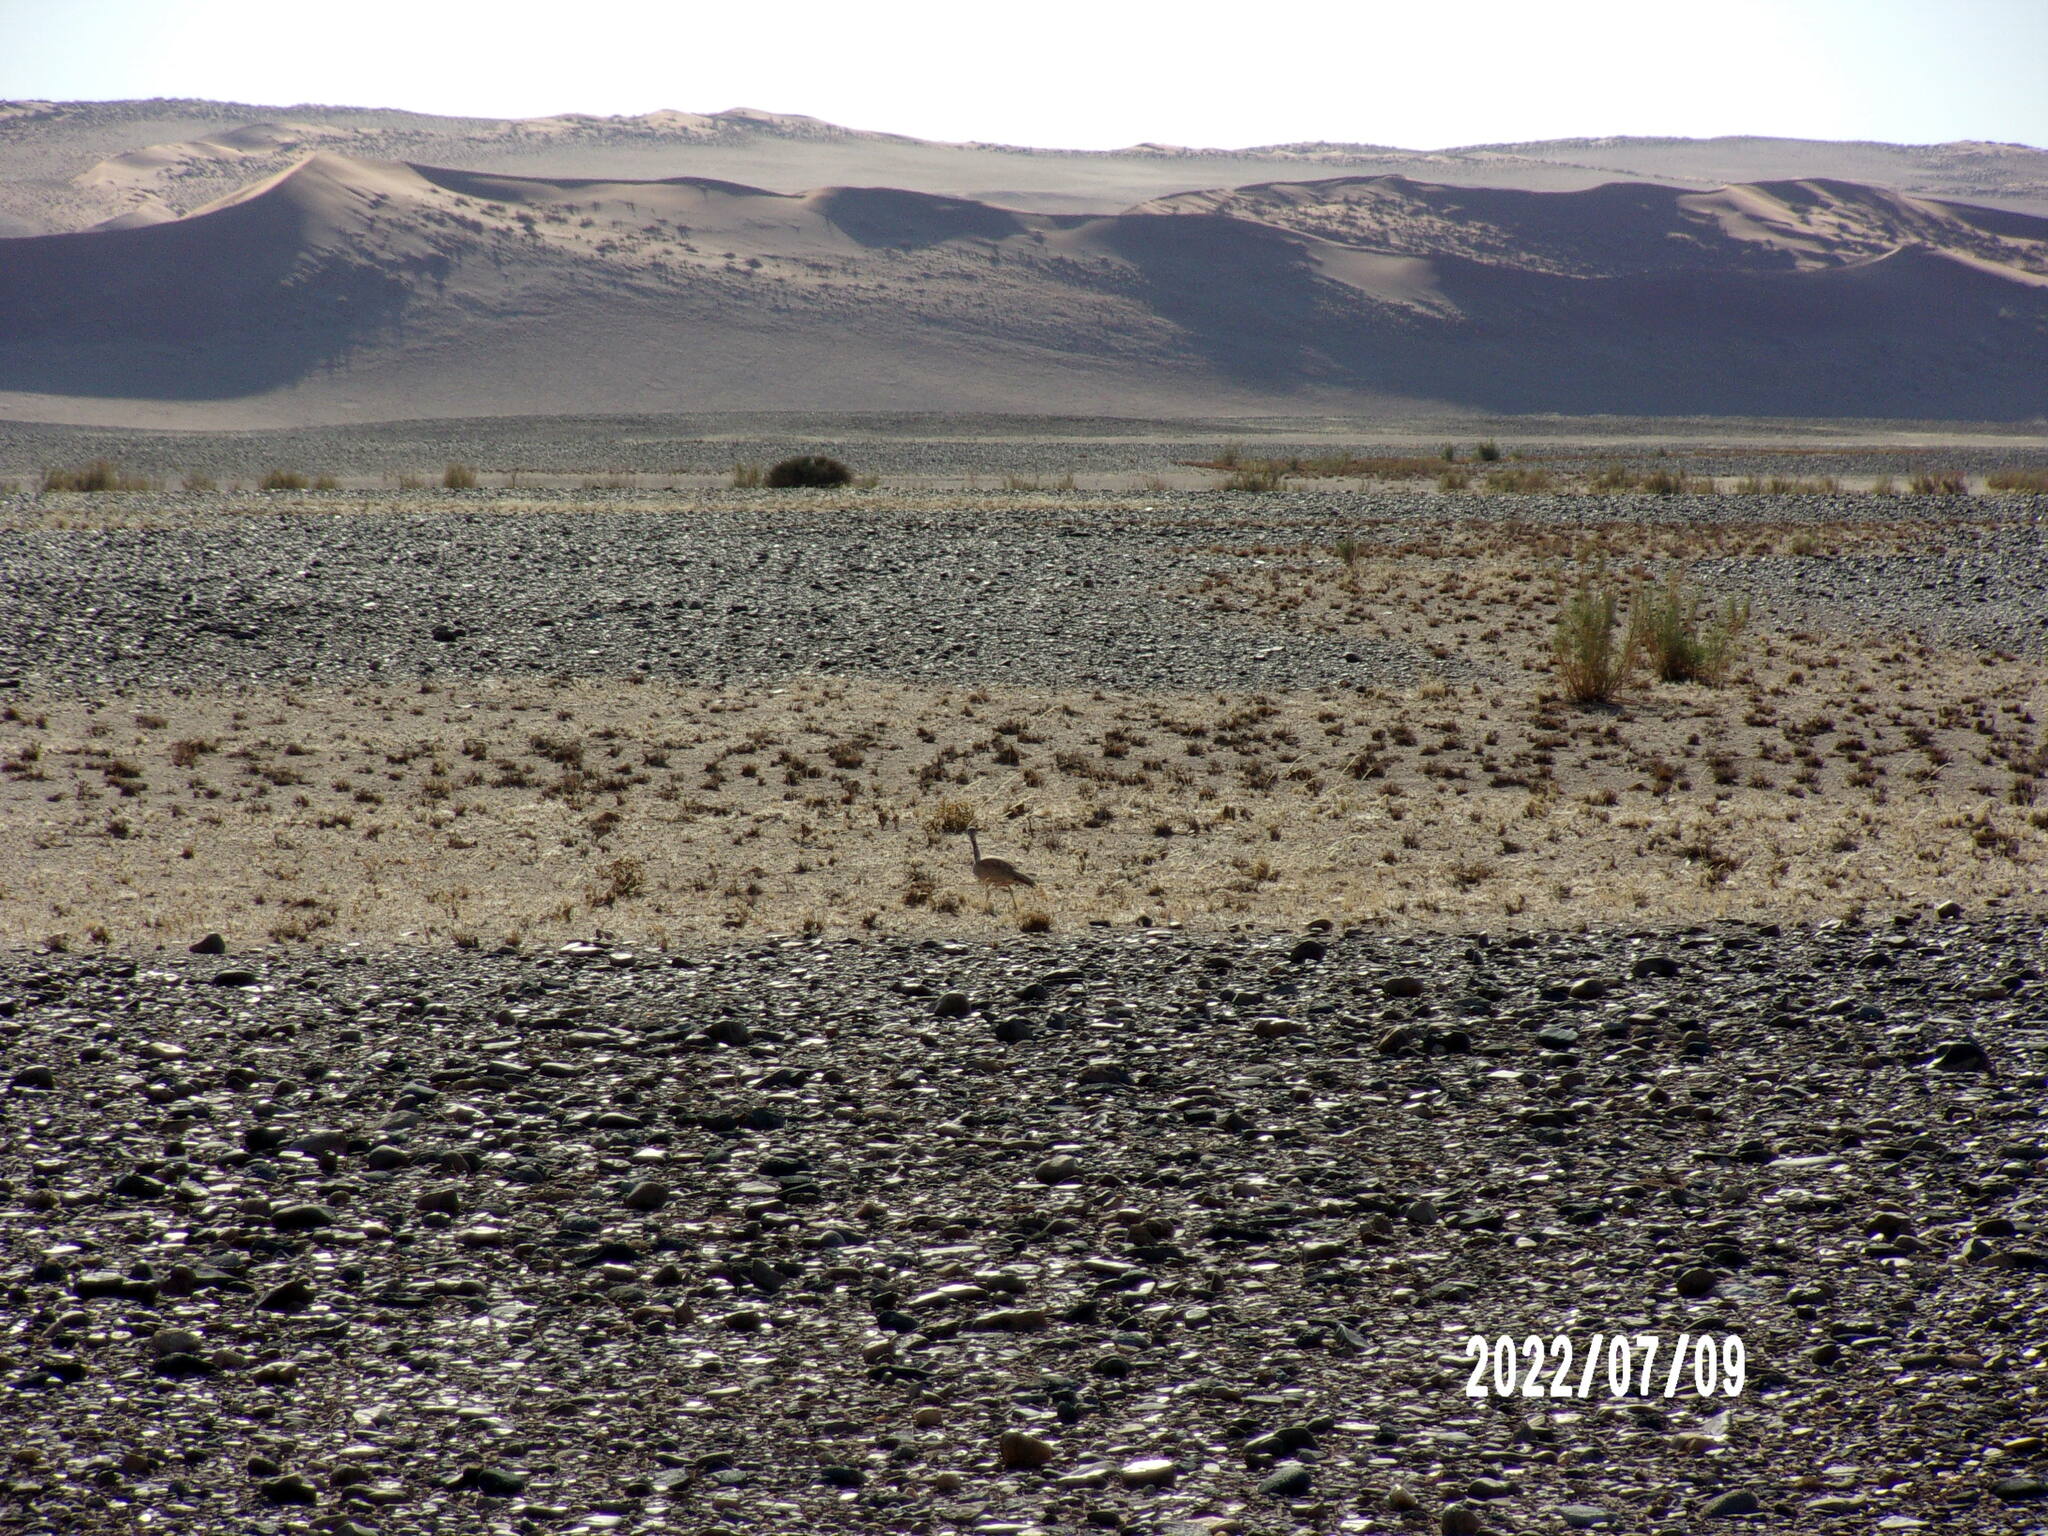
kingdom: Animalia
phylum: Chordata
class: Aves
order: Otidiformes
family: Otididae
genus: Heterotetrax
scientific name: Heterotetrax rueppelii
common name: Rüppell's korhaan
